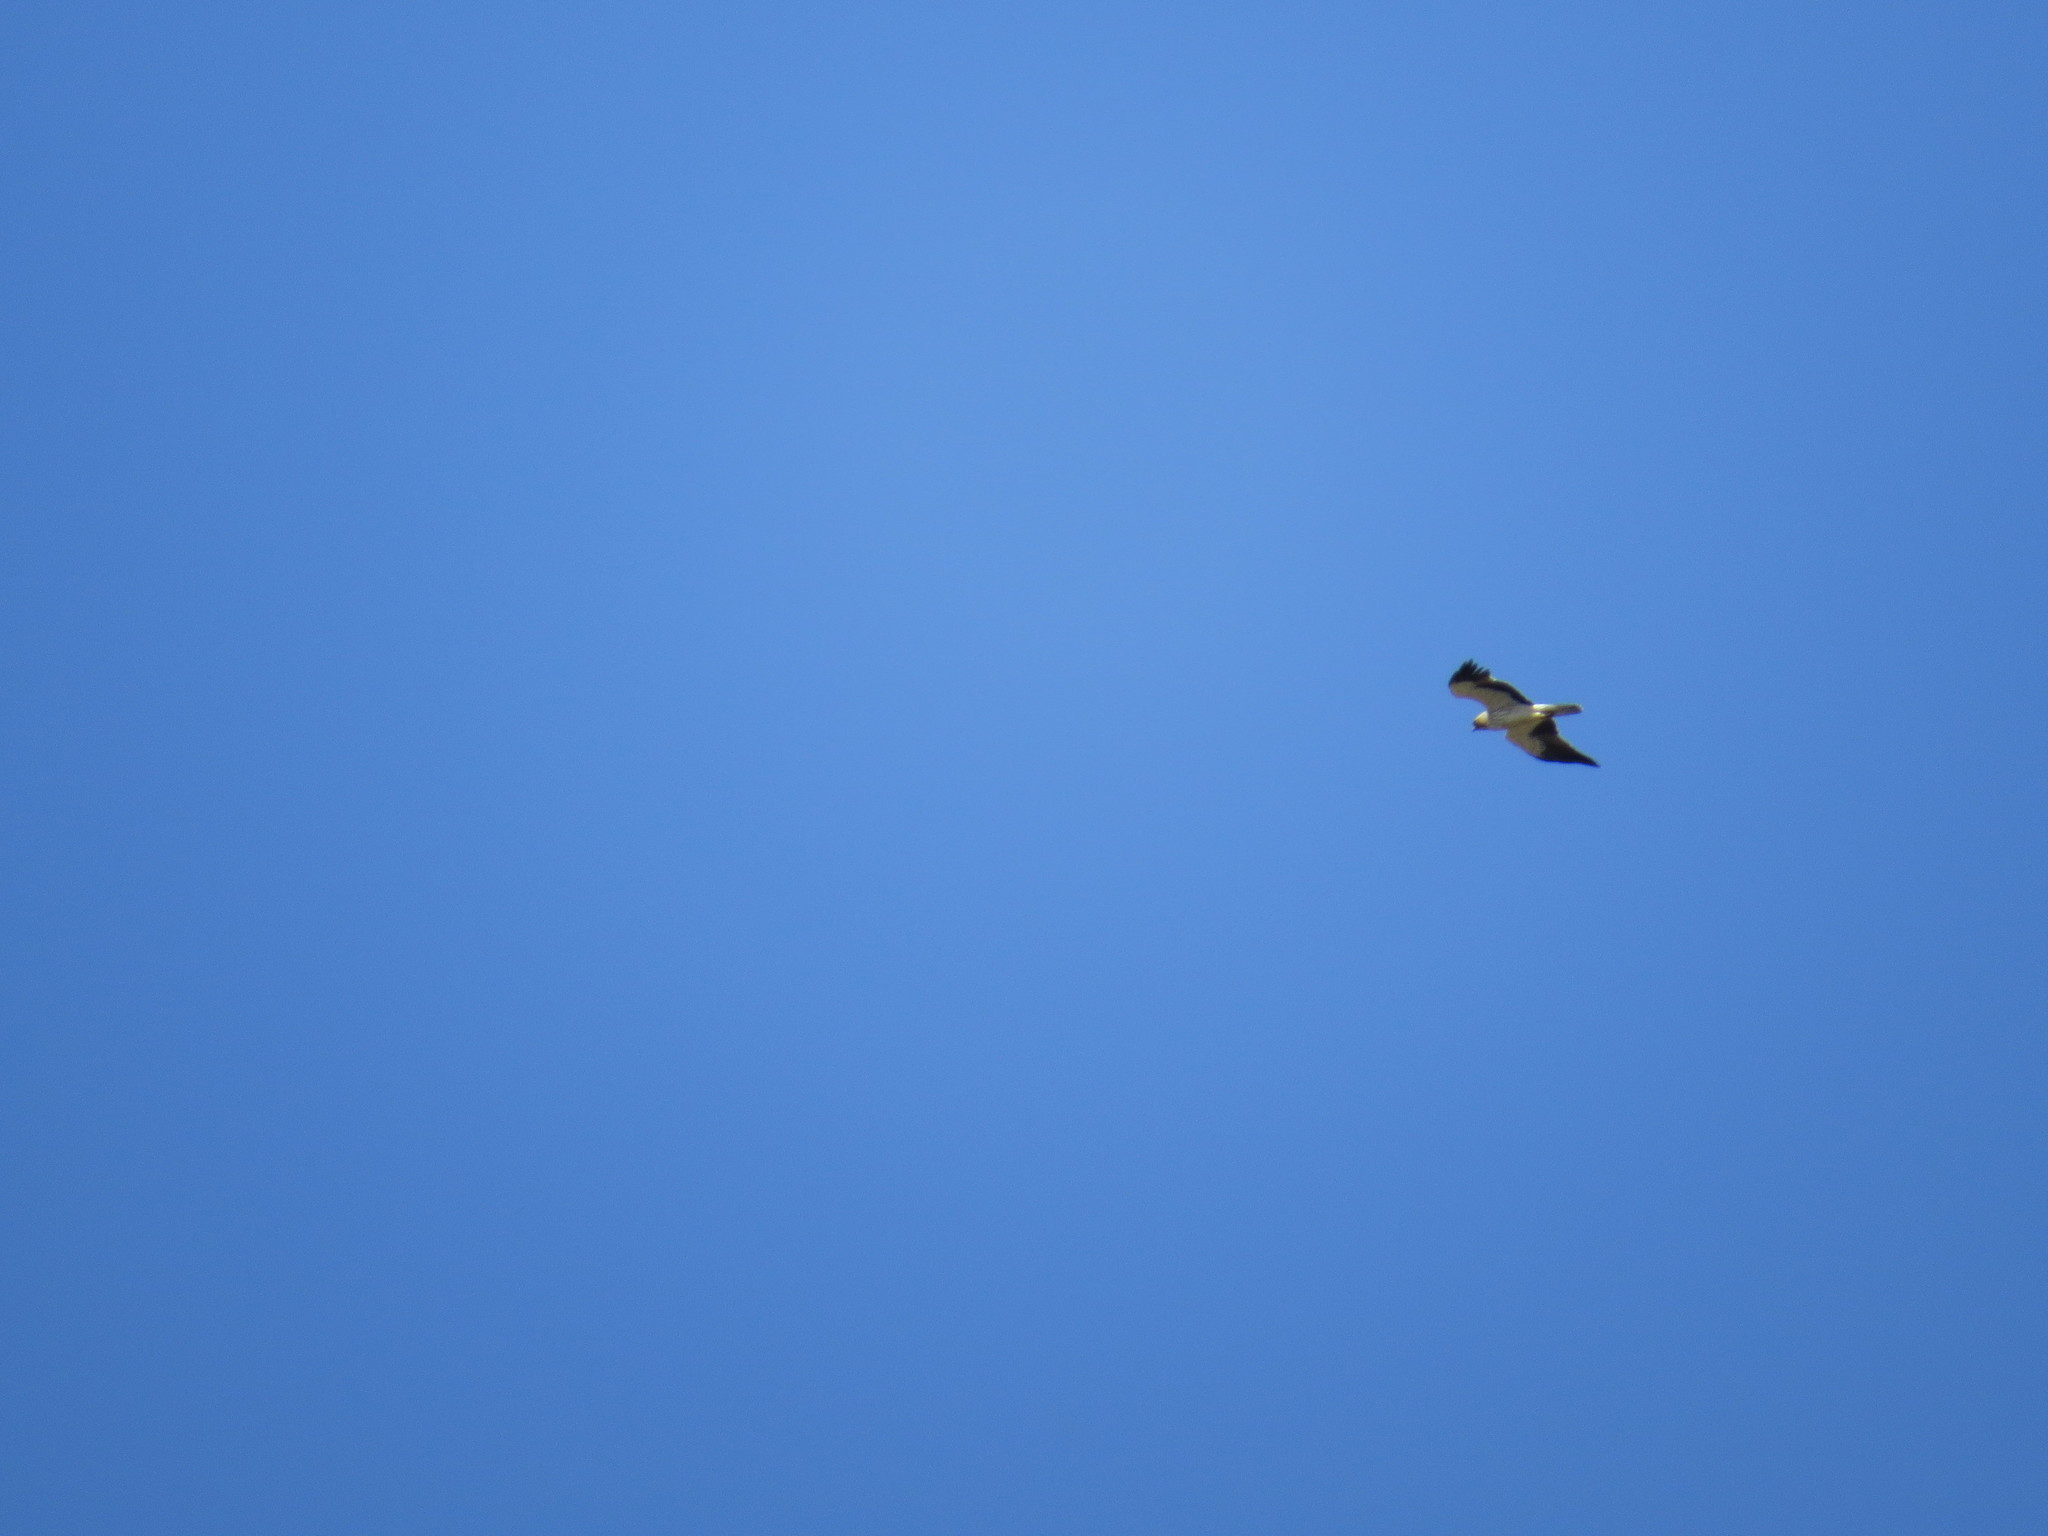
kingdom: Animalia
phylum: Chordata
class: Aves
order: Accipitriformes
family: Accipitridae
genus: Hieraaetus
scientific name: Hieraaetus pennatus
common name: Booted eagle
